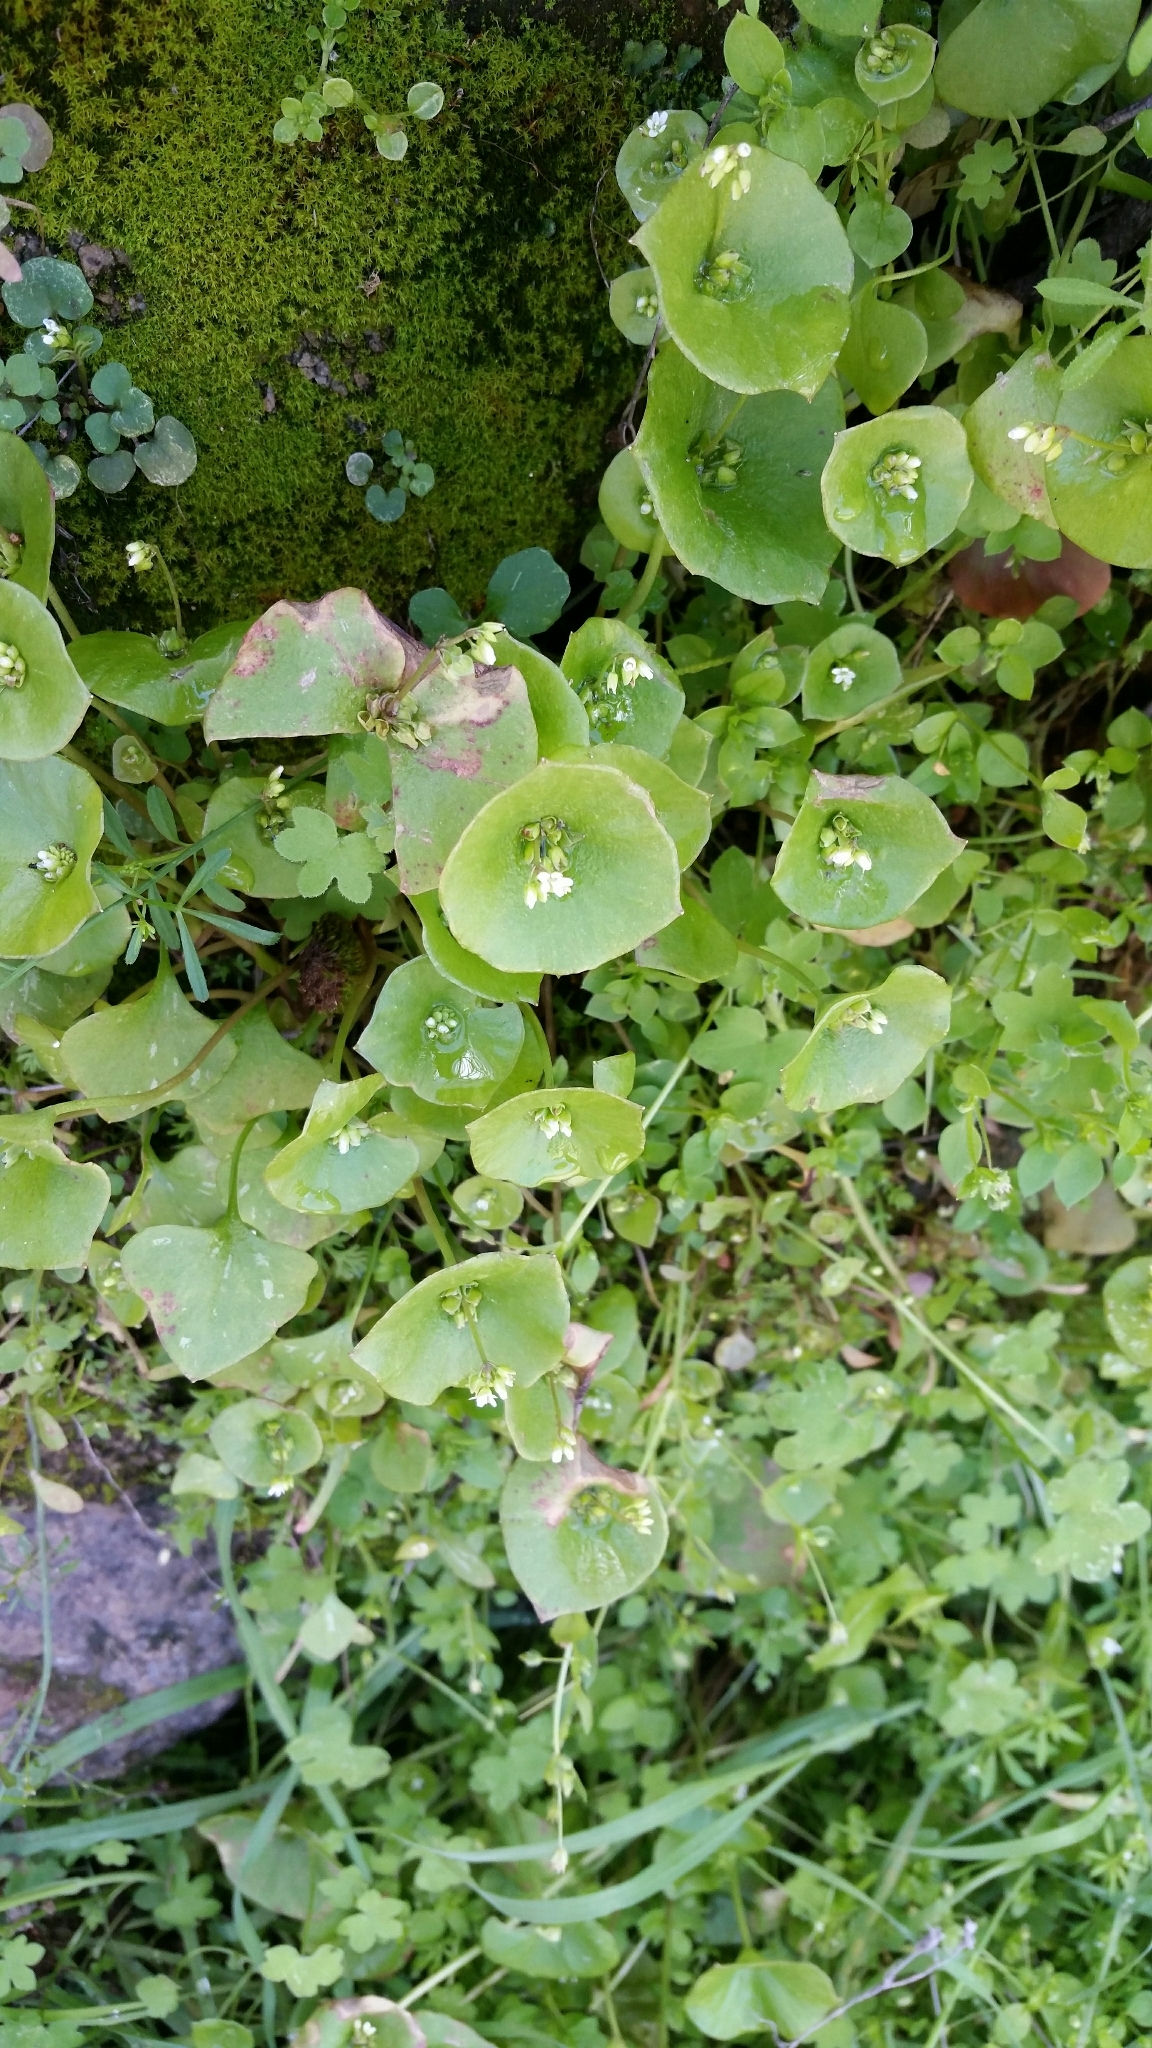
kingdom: Plantae
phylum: Tracheophyta
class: Magnoliopsida
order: Caryophyllales
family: Montiaceae
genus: Claytonia
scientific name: Claytonia perfoliata
